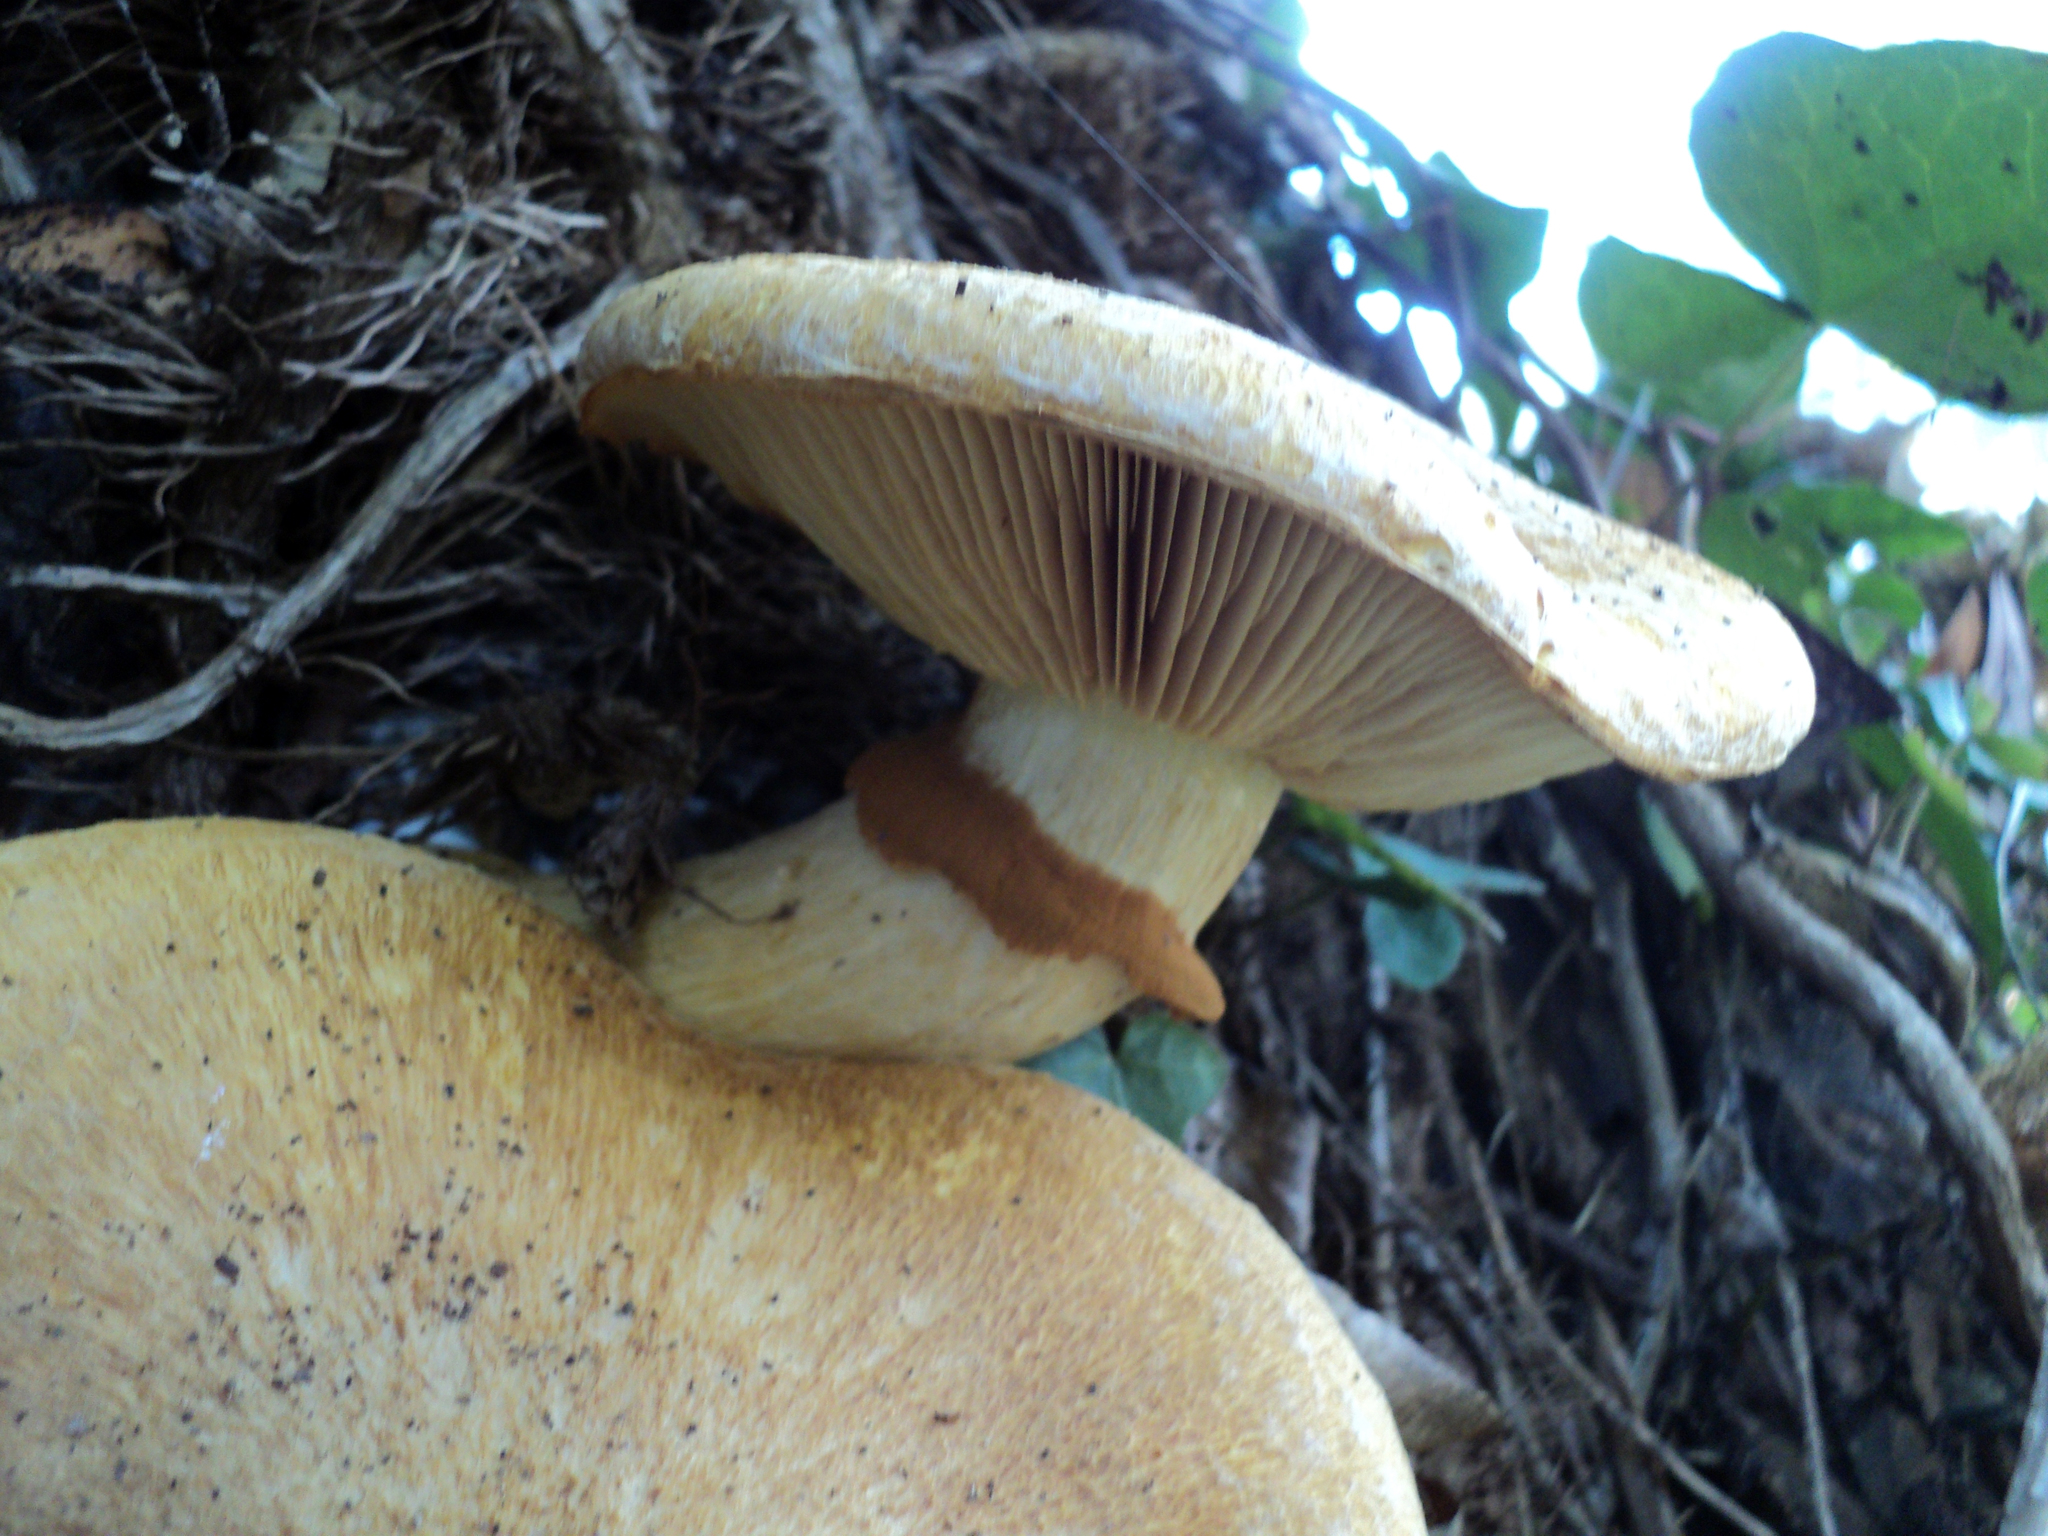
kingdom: Fungi
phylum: Basidiomycota
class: Agaricomycetes
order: Agaricales
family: Hymenogastraceae
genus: Gymnopilus
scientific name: Gymnopilus ventricosus
